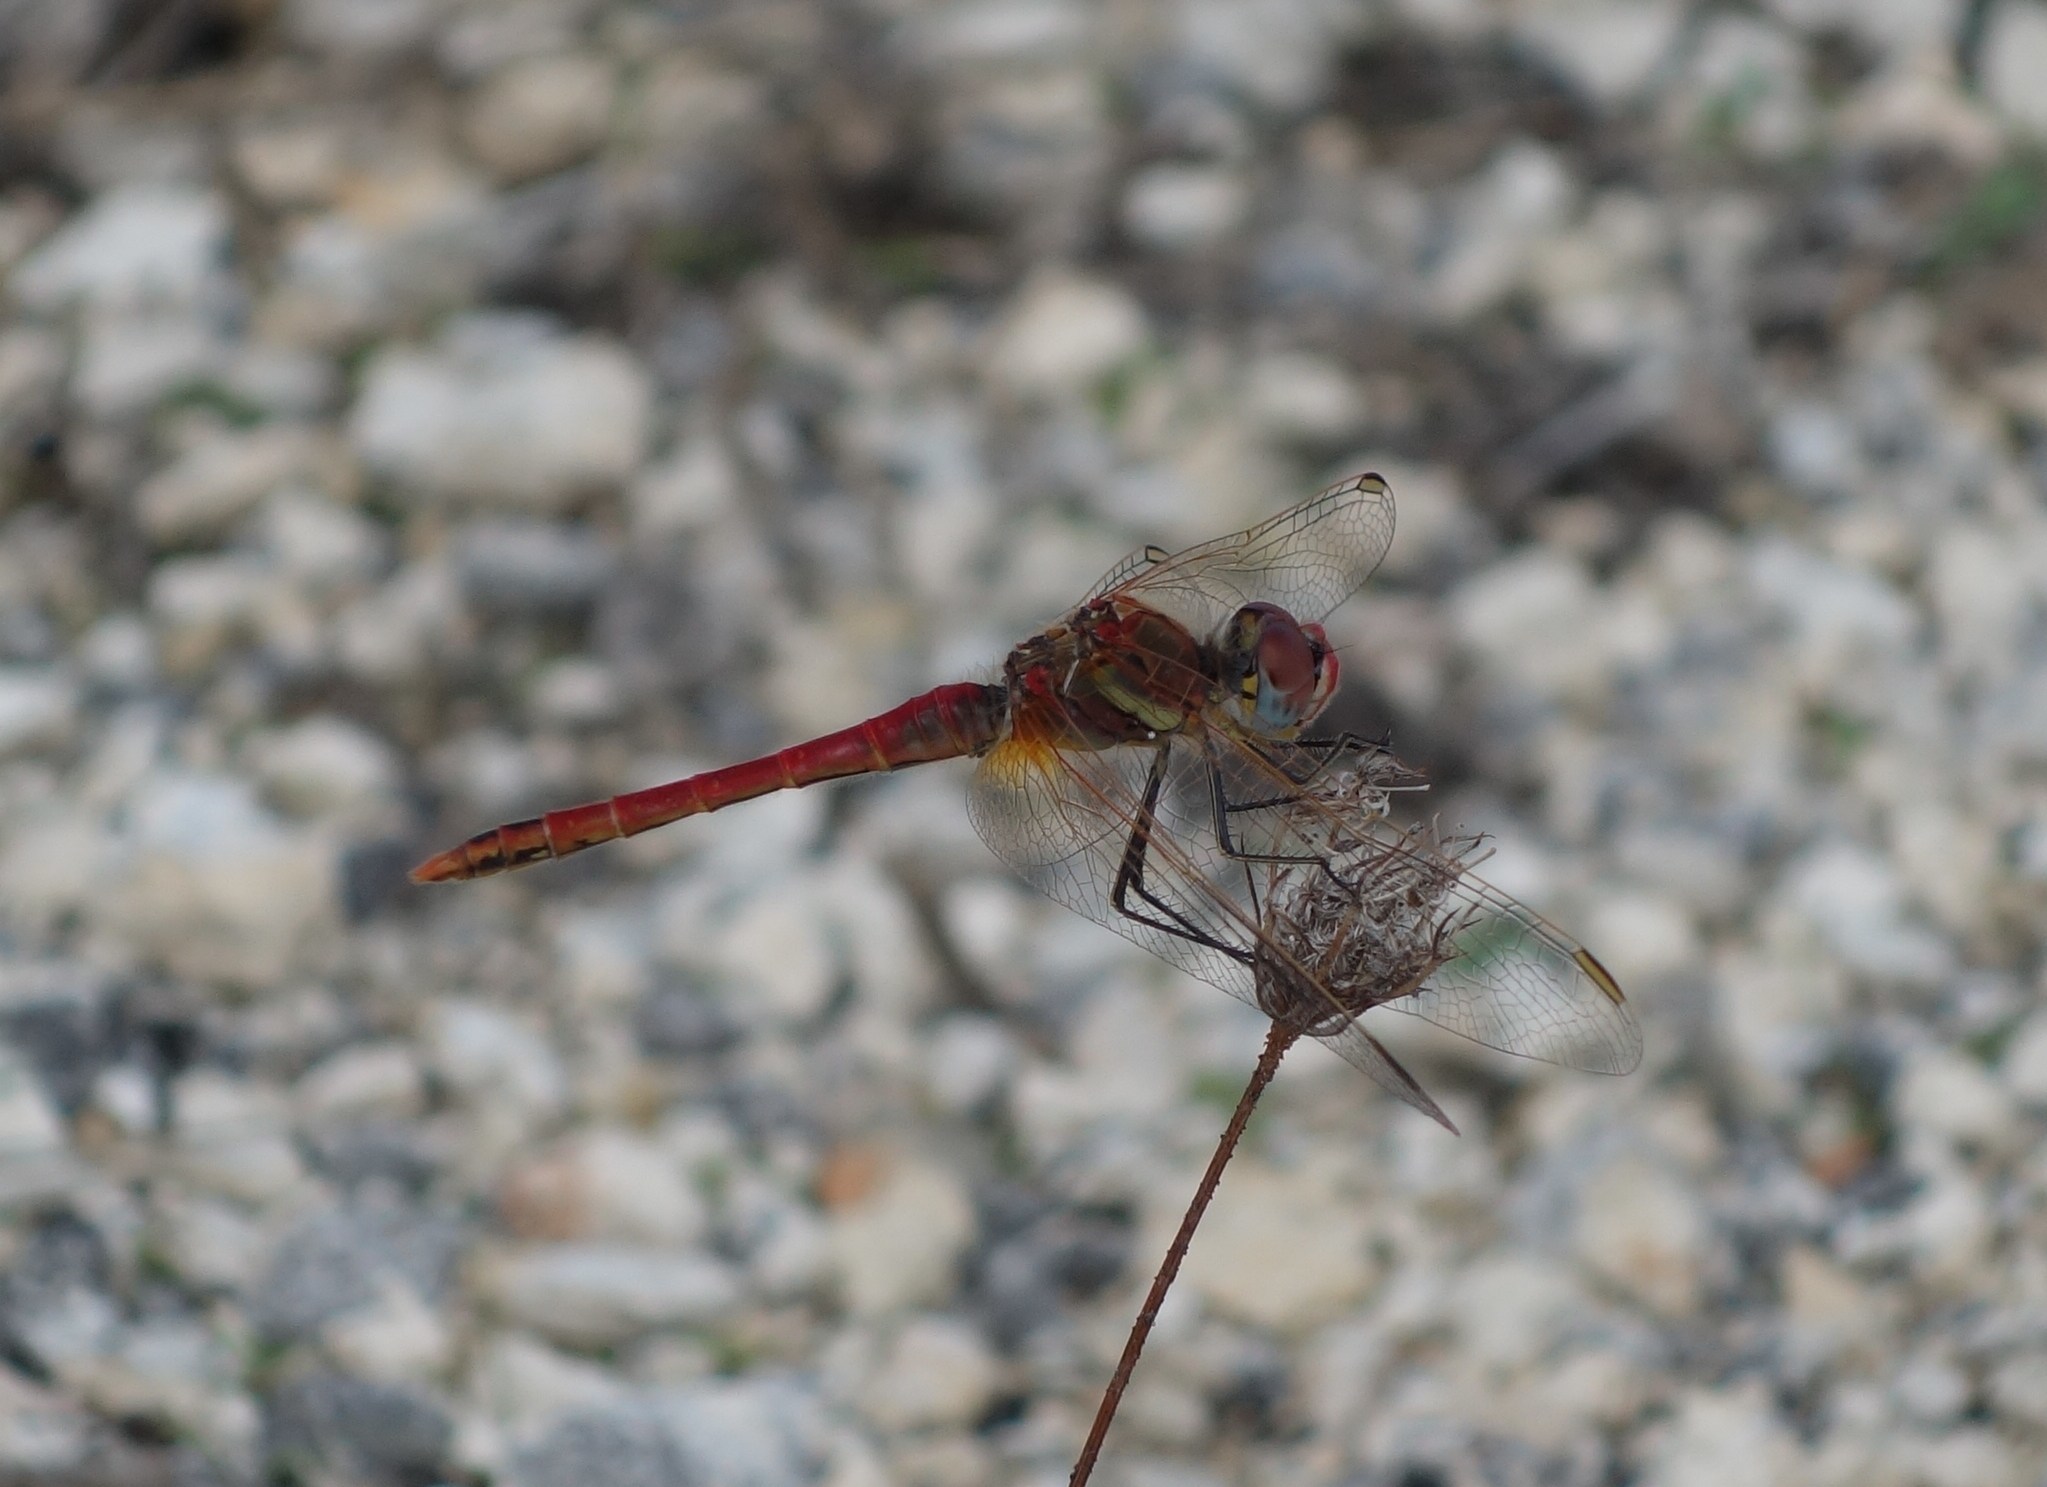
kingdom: Animalia
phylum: Arthropoda
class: Insecta
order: Odonata
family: Libellulidae
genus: Sympetrum
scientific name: Sympetrum fonscolombii
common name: Red-veined darter
